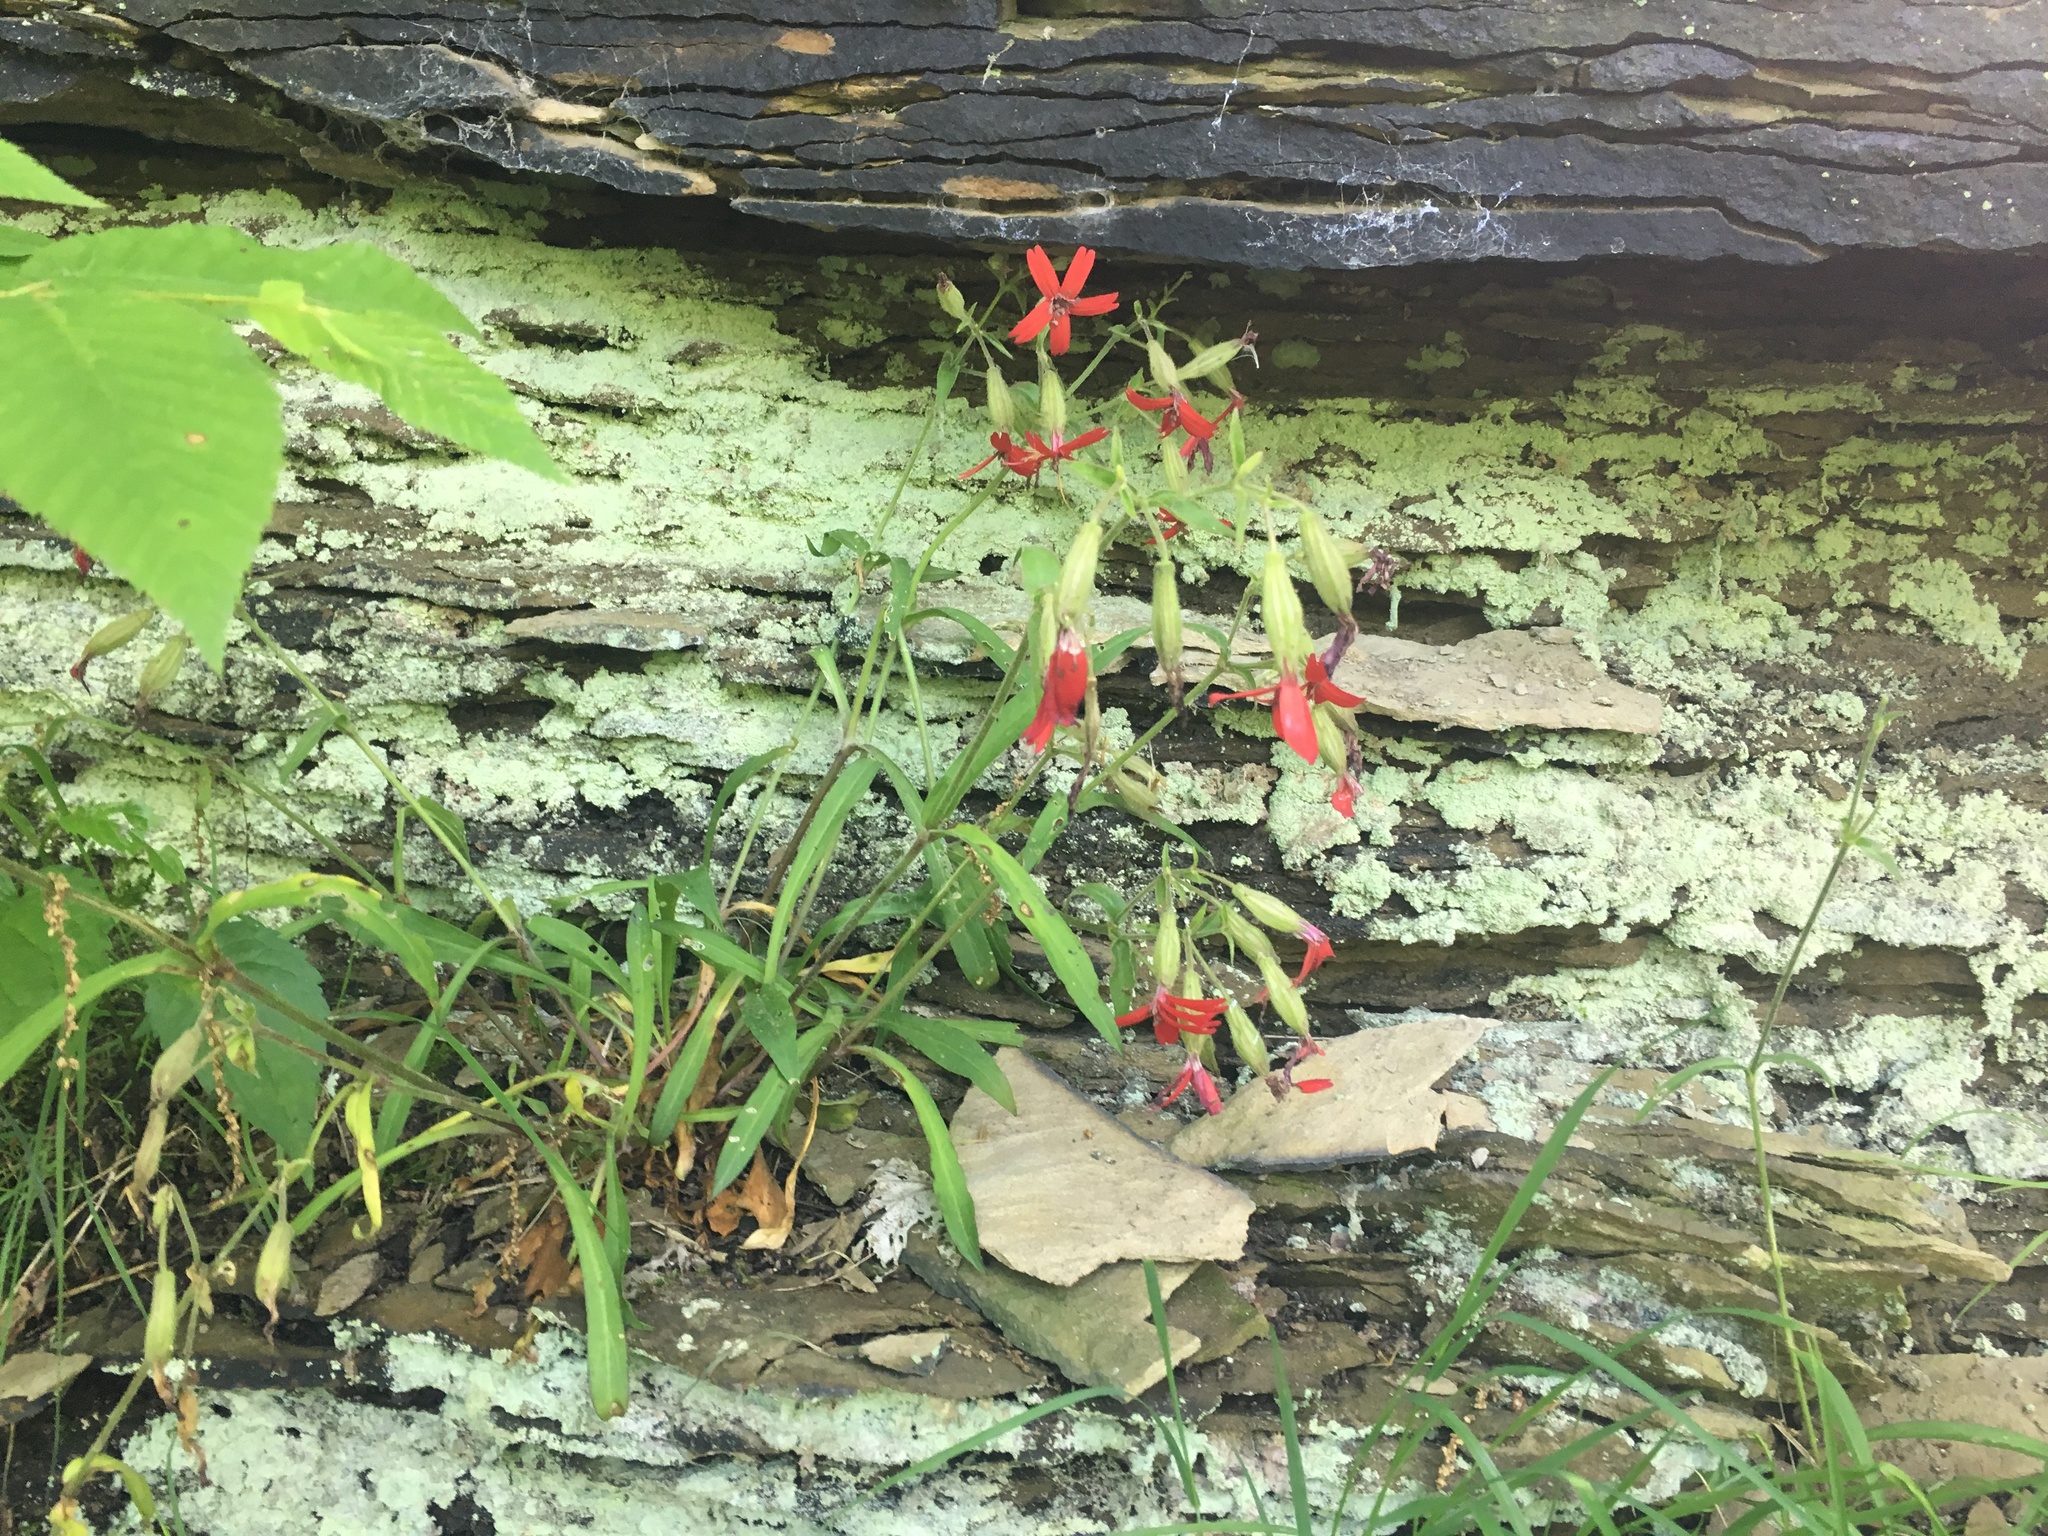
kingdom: Plantae
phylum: Tracheophyta
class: Magnoliopsida
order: Caryophyllales
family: Caryophyllaceae
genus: Silene
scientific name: Silene virginica
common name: Fire-pink
